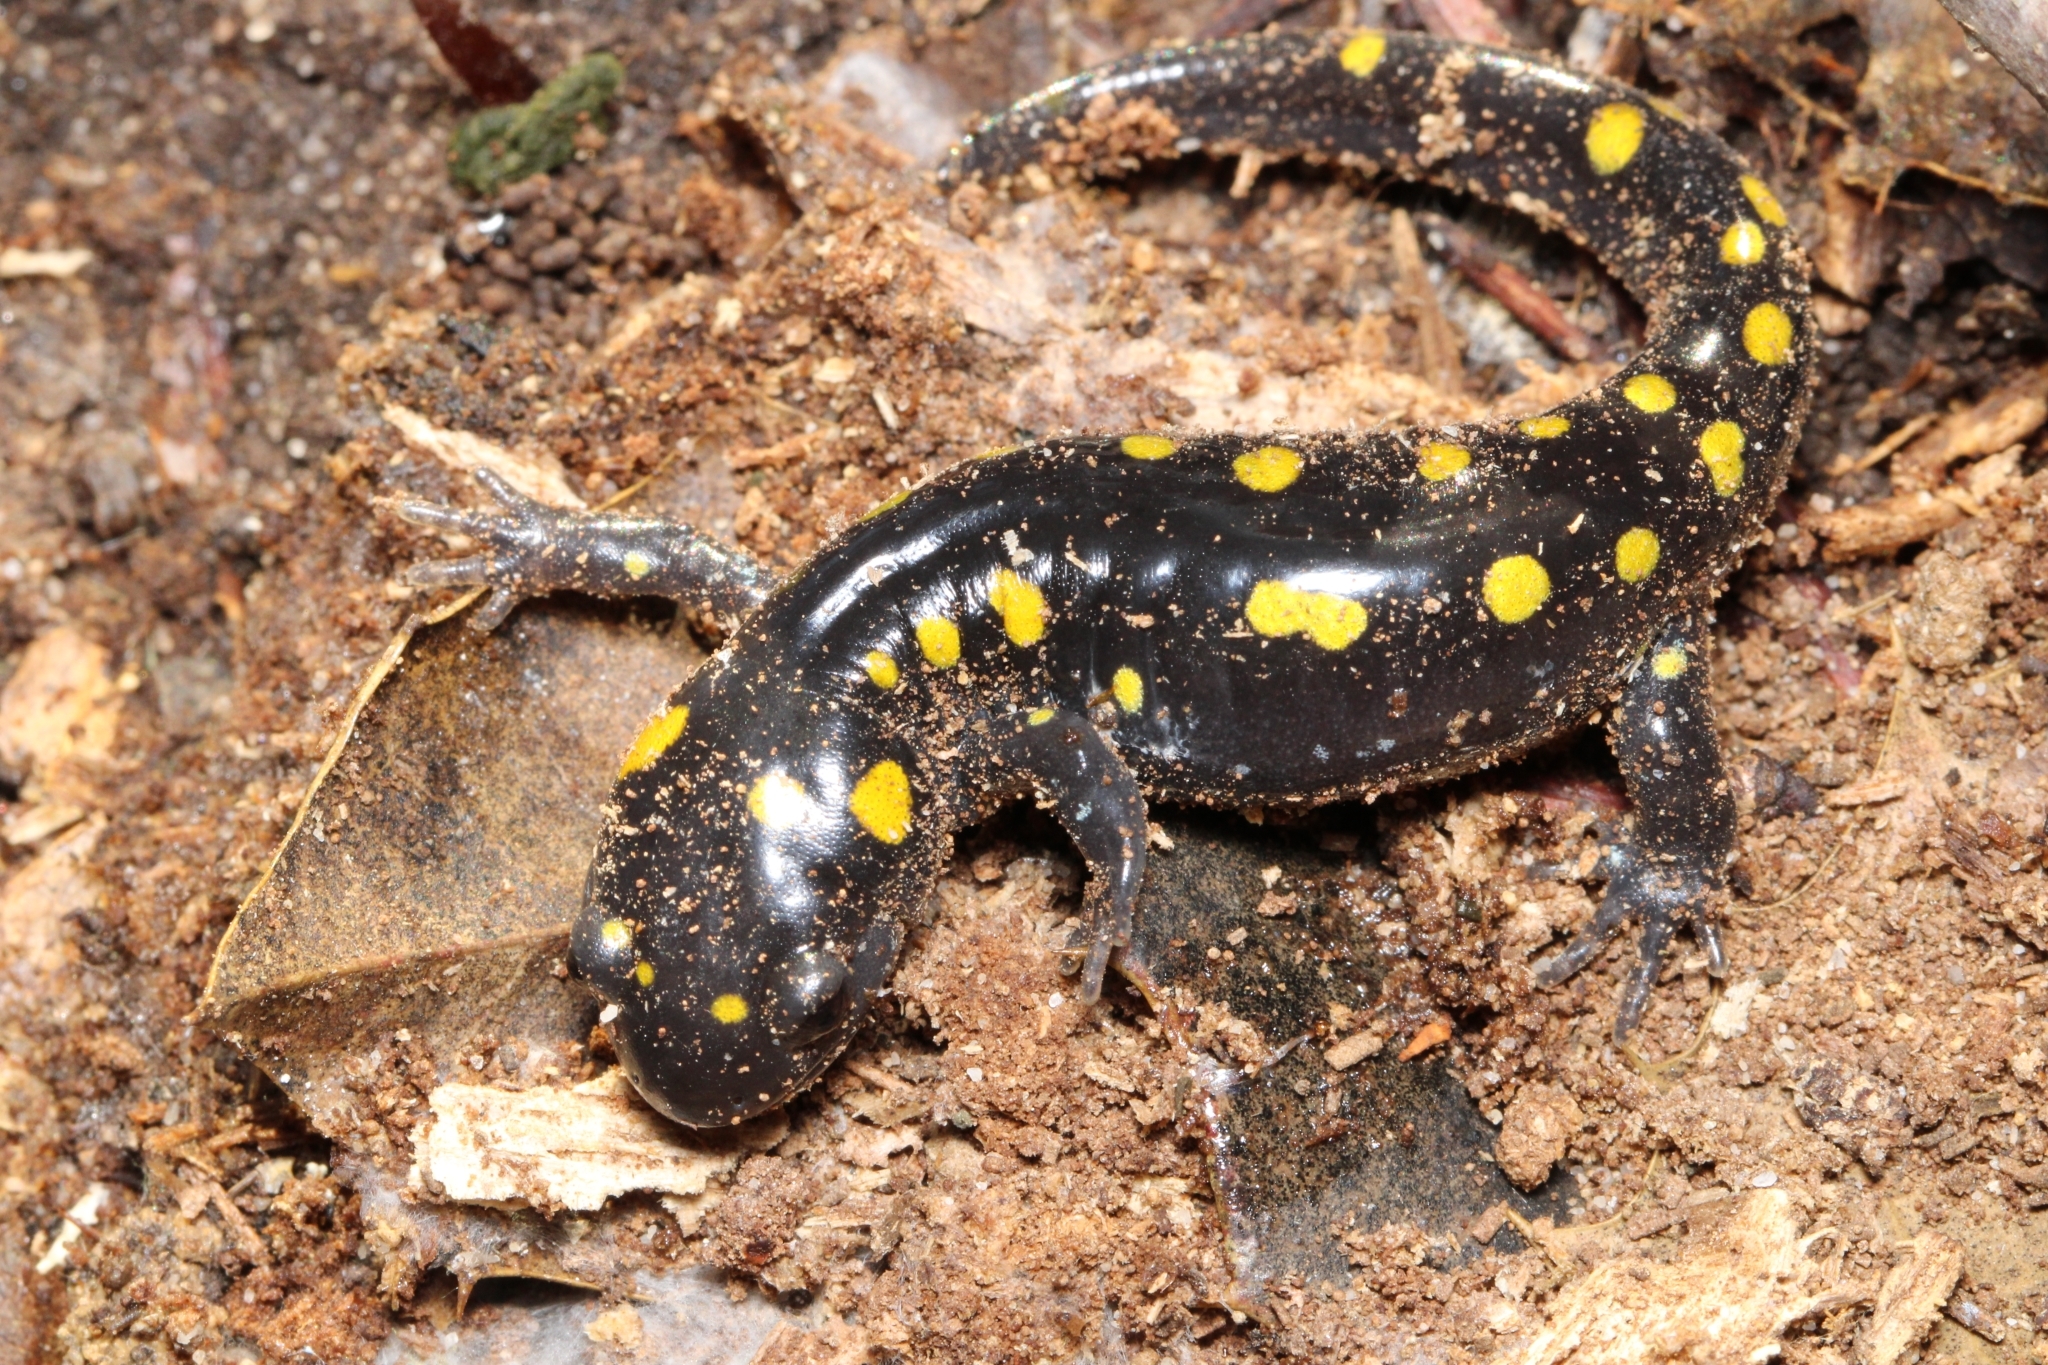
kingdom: Animalia
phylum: Chordata
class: Amphibia
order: Caudata
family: Ambystomatidae
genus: Ambystoma
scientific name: Ambystoma maculatum
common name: Spotted salamander
